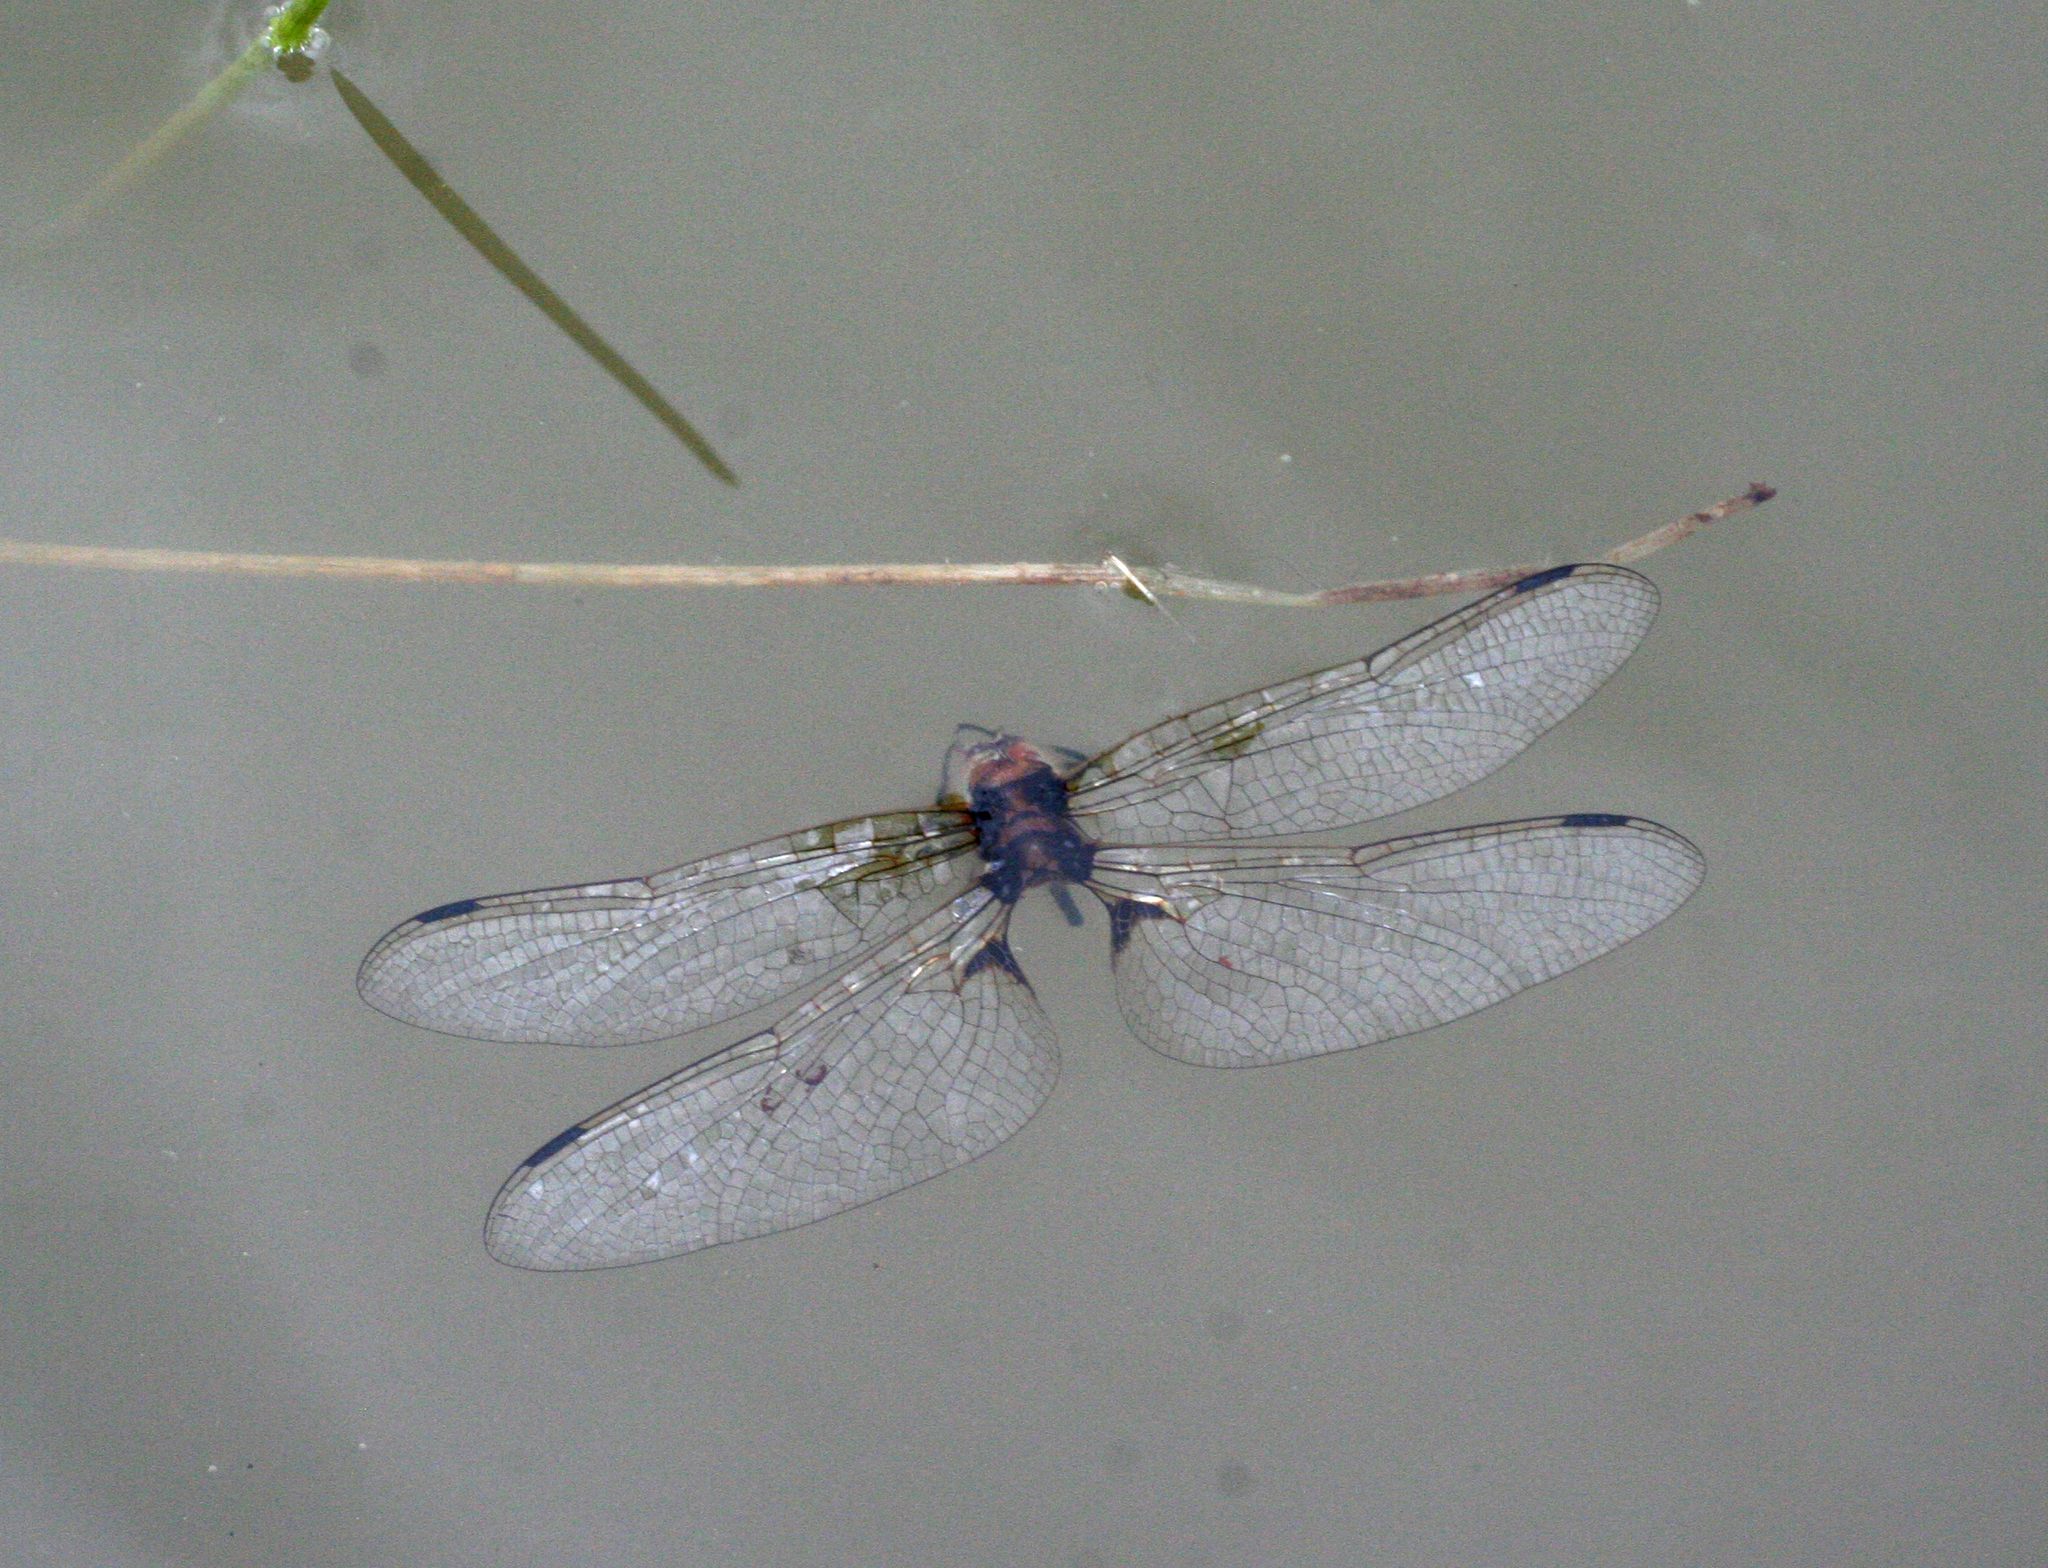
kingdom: Animalia
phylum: Arthropoda
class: Insecta
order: Odonata
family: Corduliidae
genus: Epitheca
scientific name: Epitheca bimaculata
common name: Eurasian baskettail
